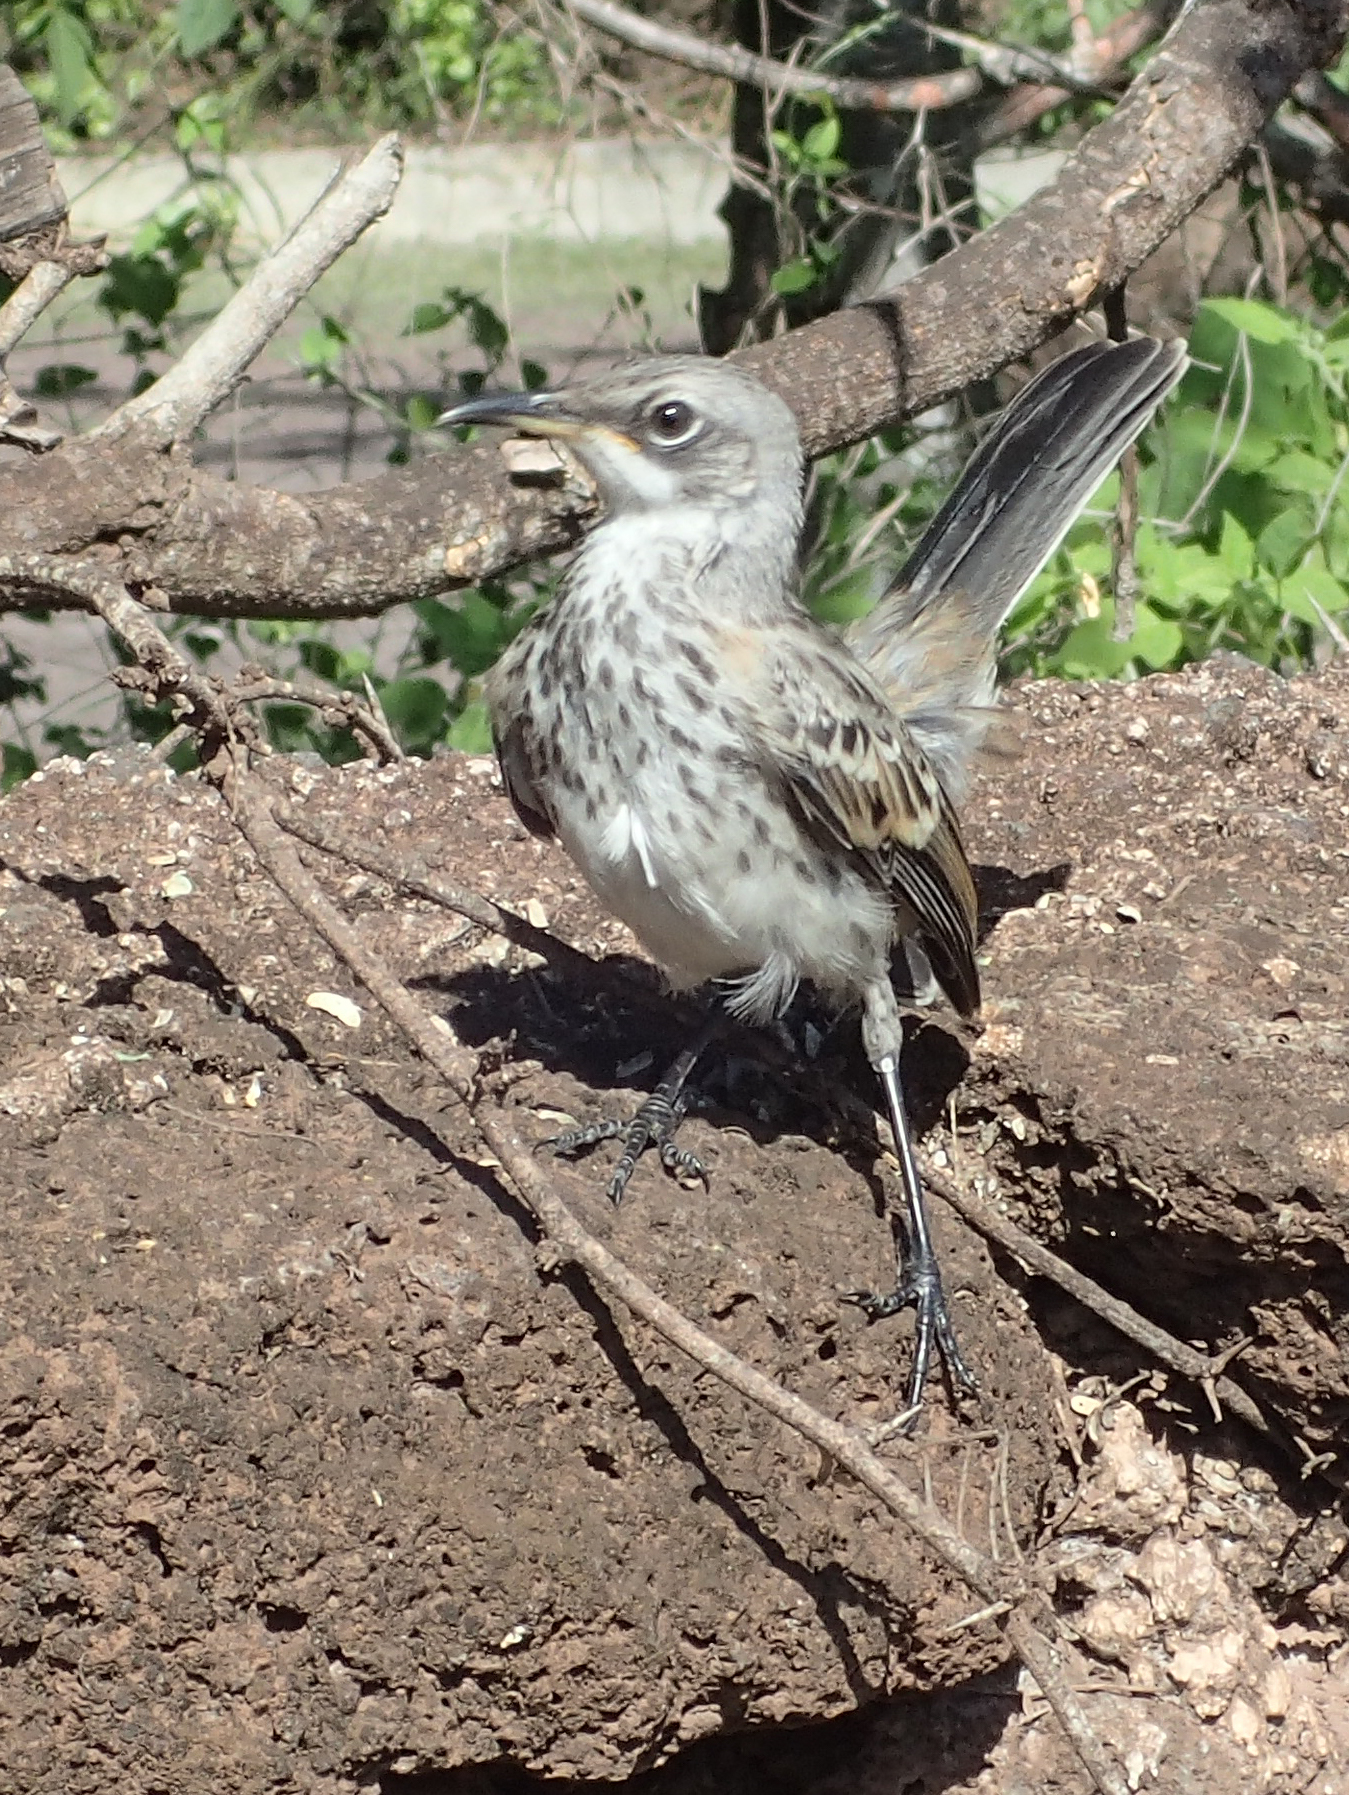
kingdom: Animalia
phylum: Chordata
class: Aves
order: Passeriformes
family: Mimidae
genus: Mimus
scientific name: Mimus melanotis
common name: San cristobal mockingbird
